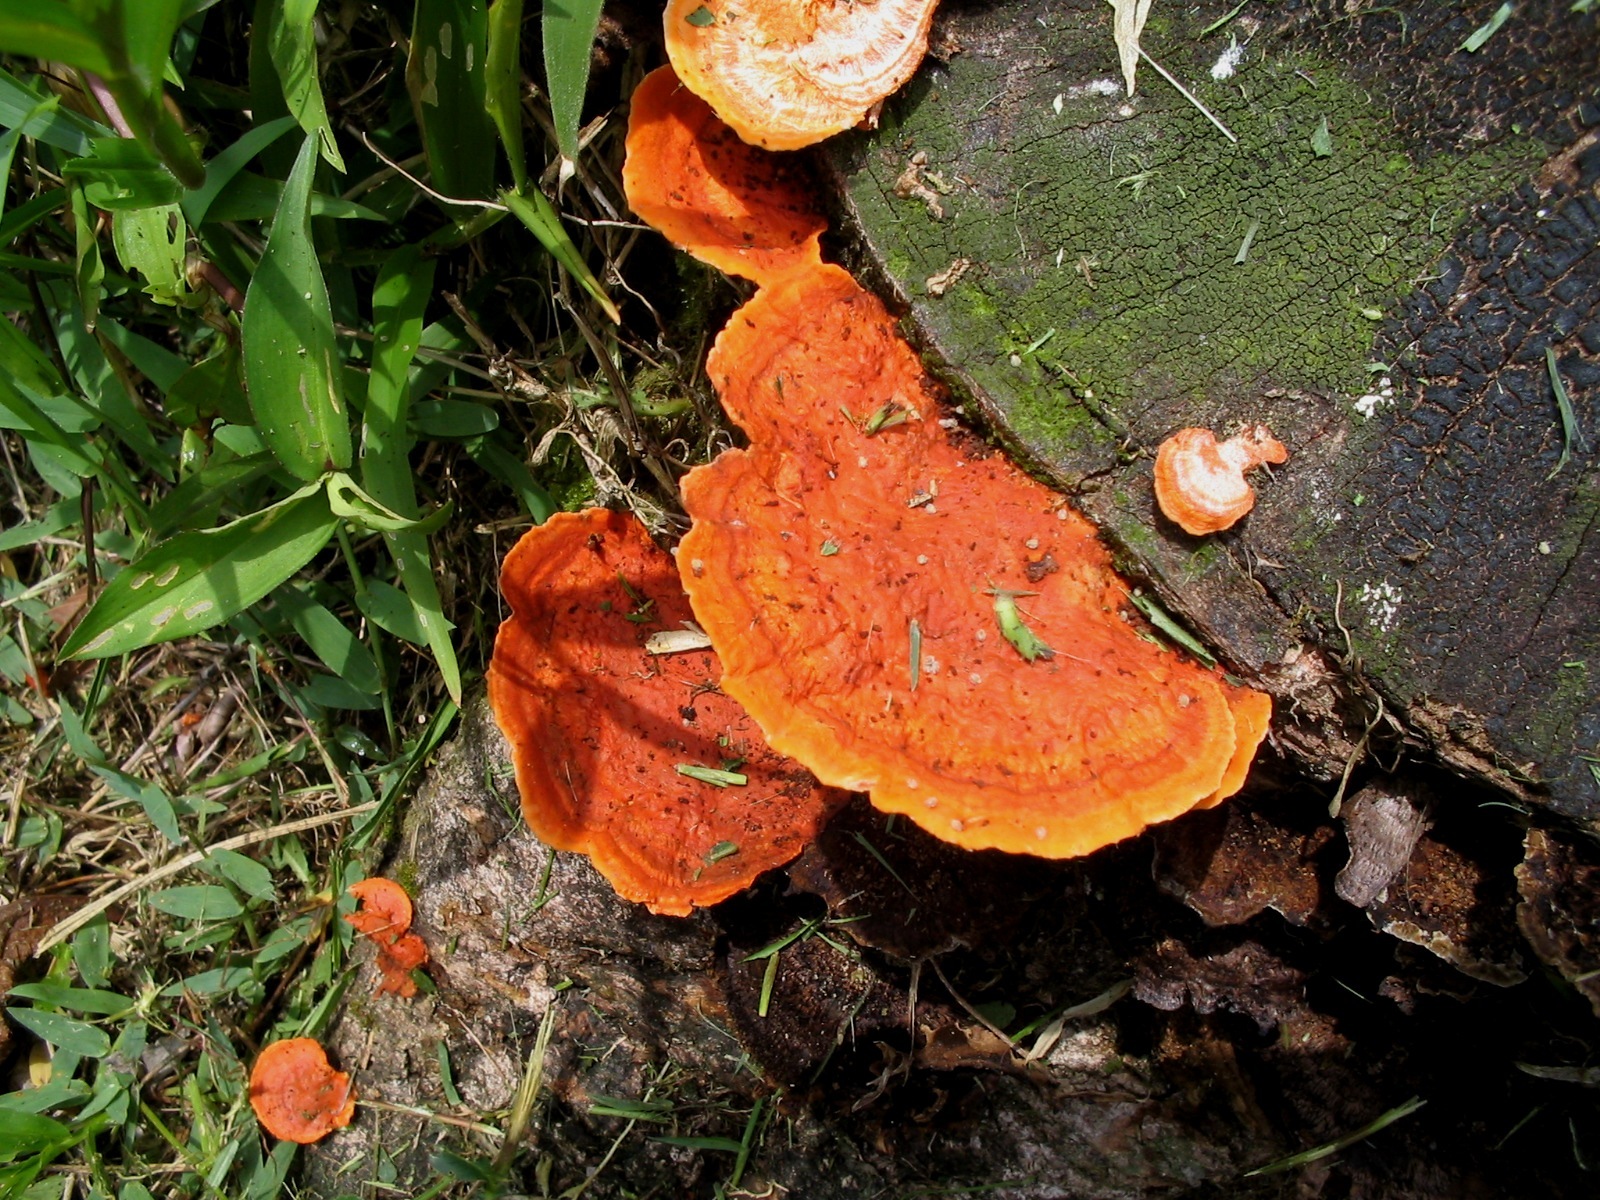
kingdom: Fungi
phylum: Basidiomycota
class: Agaricomycetes
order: Polyporales
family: Polyporaceae
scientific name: Polyporaceae
